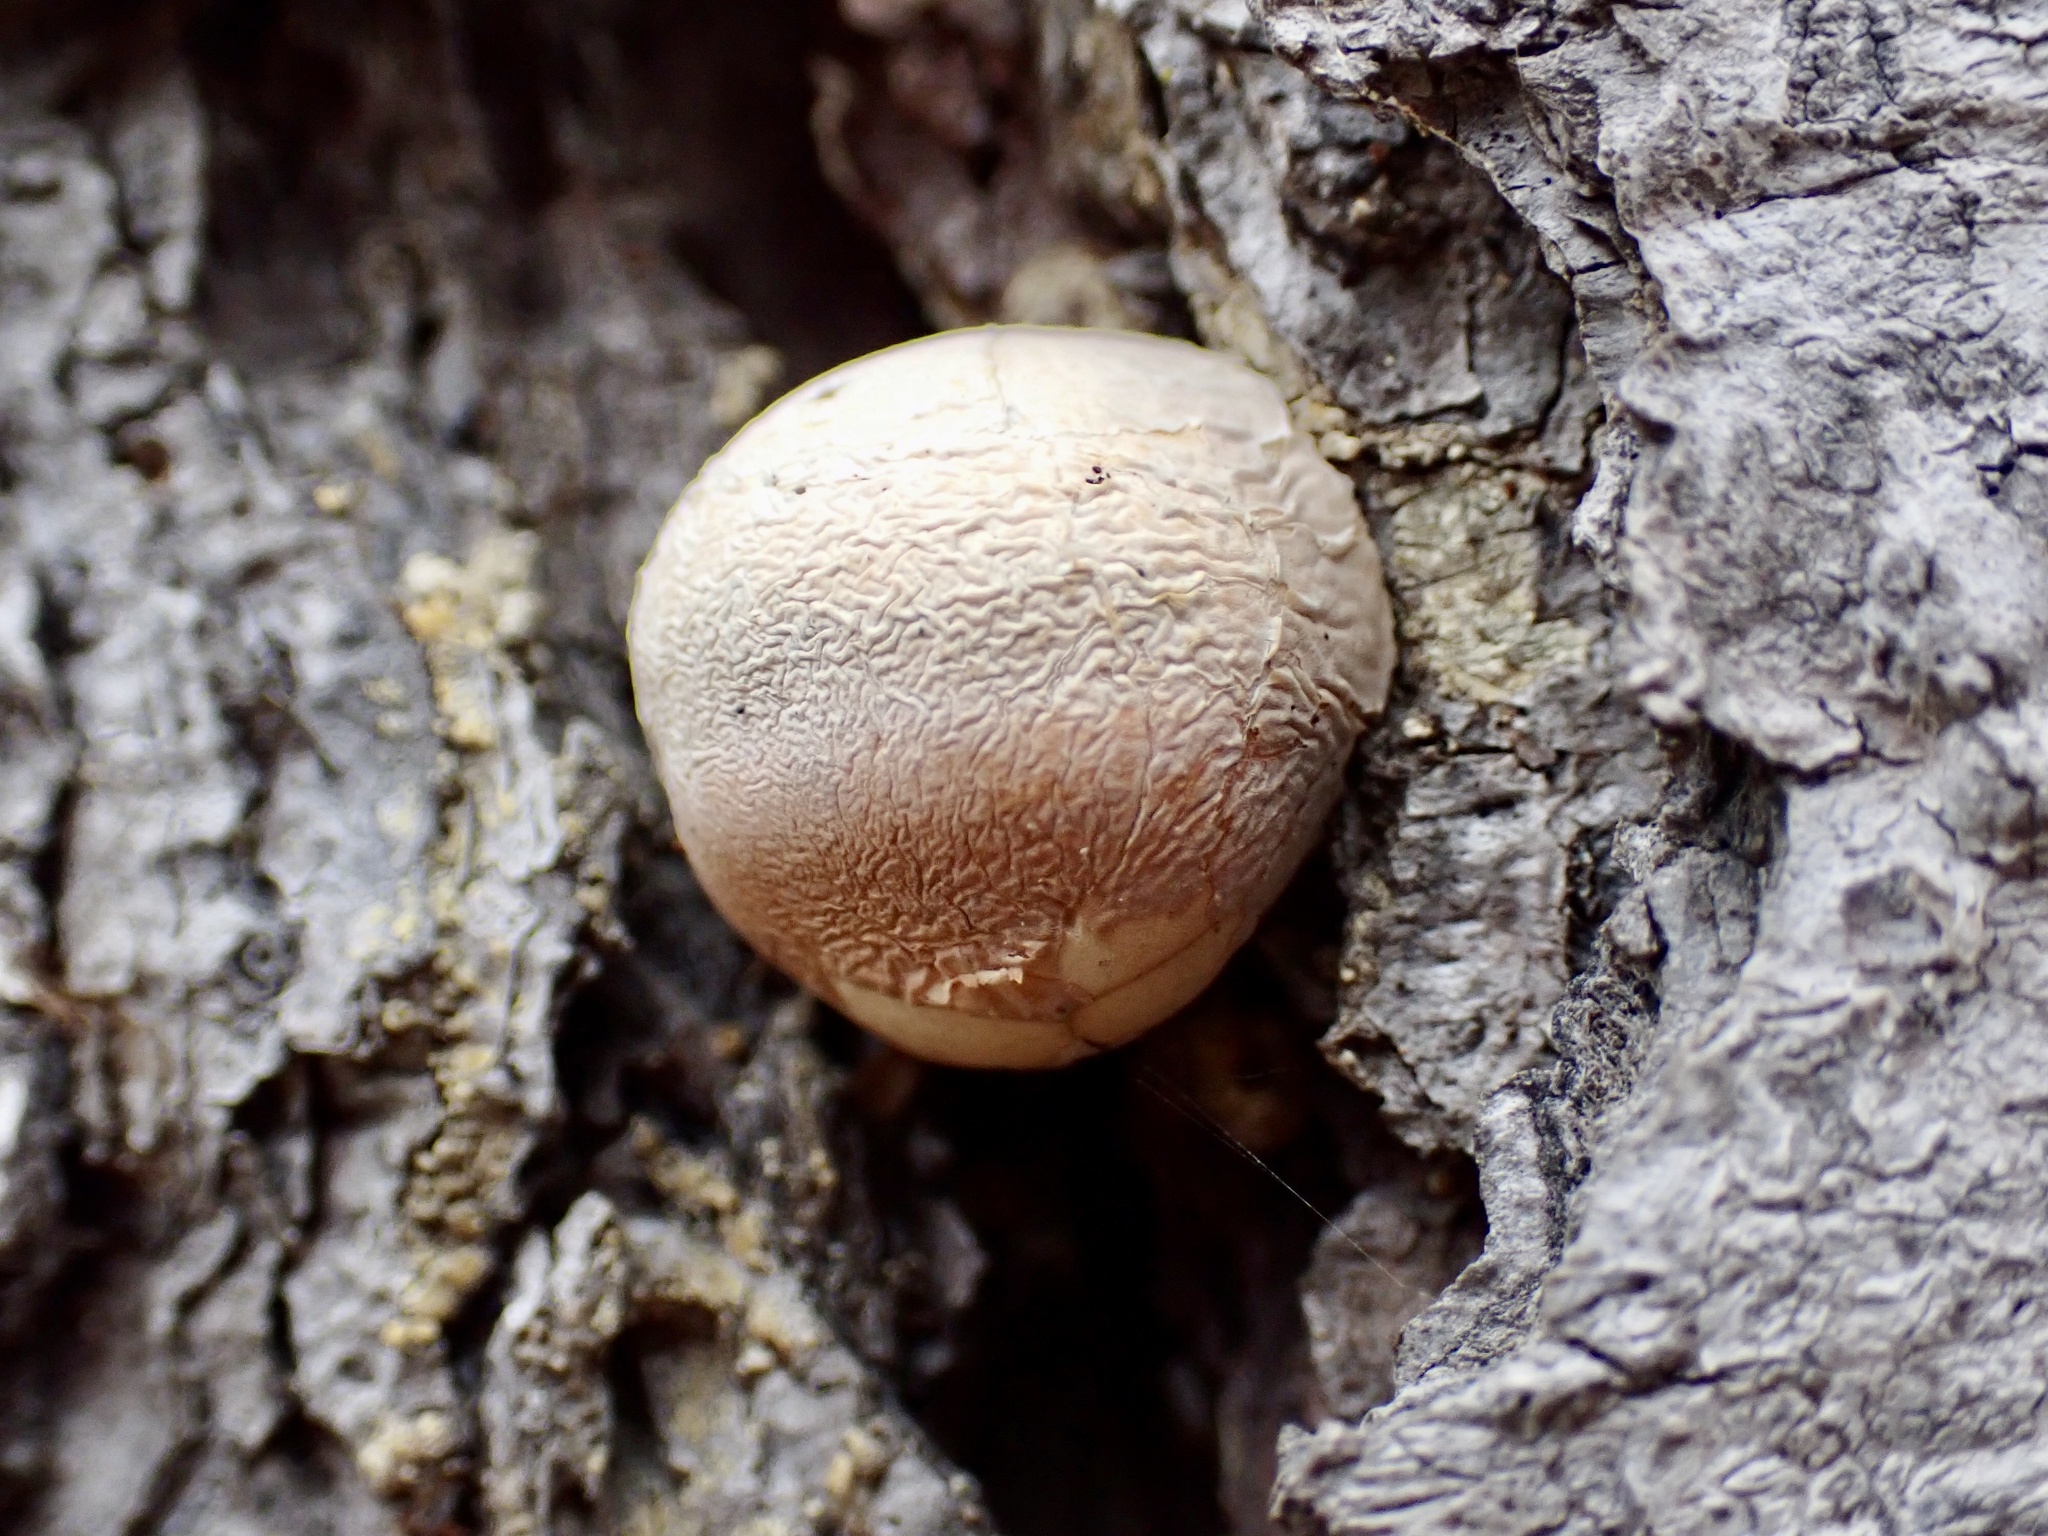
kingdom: Fungi
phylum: Basidiomycota
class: Agaricomycetes
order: Polyporales
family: Polyporaceae
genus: Cryptoporus
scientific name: Cryptoporus volvatus
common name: Veiled polypore
